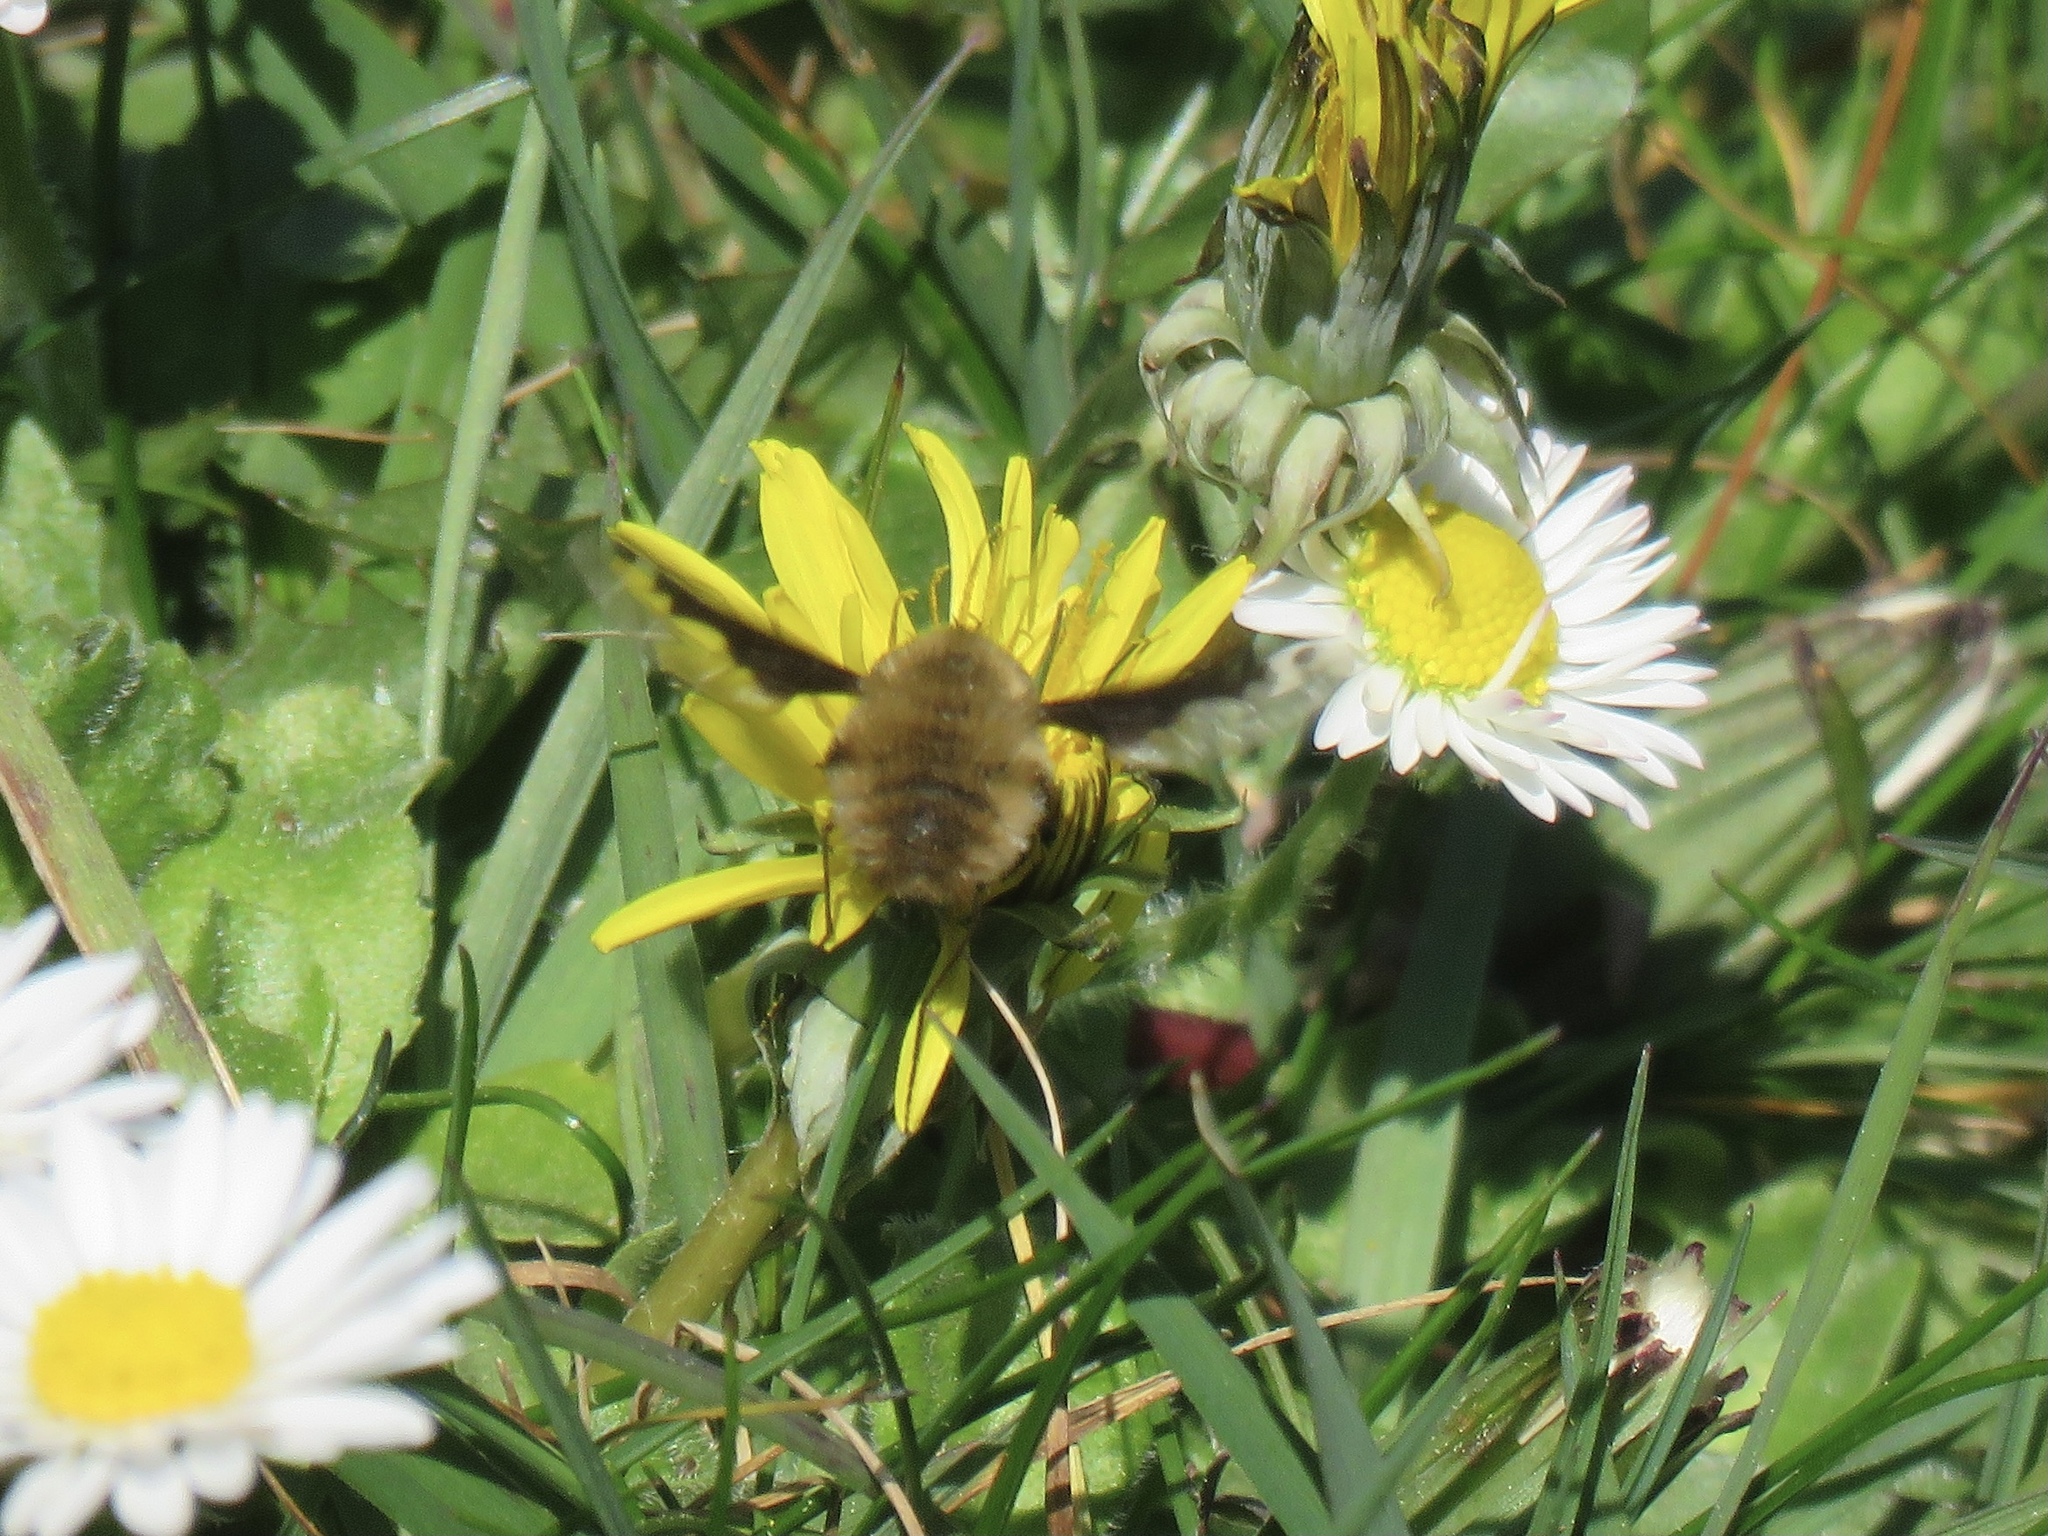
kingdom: Animalia
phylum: Arthropoda
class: Insecta
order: Diptera
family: Bombyliidae
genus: Bombylius
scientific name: Bombylius major
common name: Bee fly
